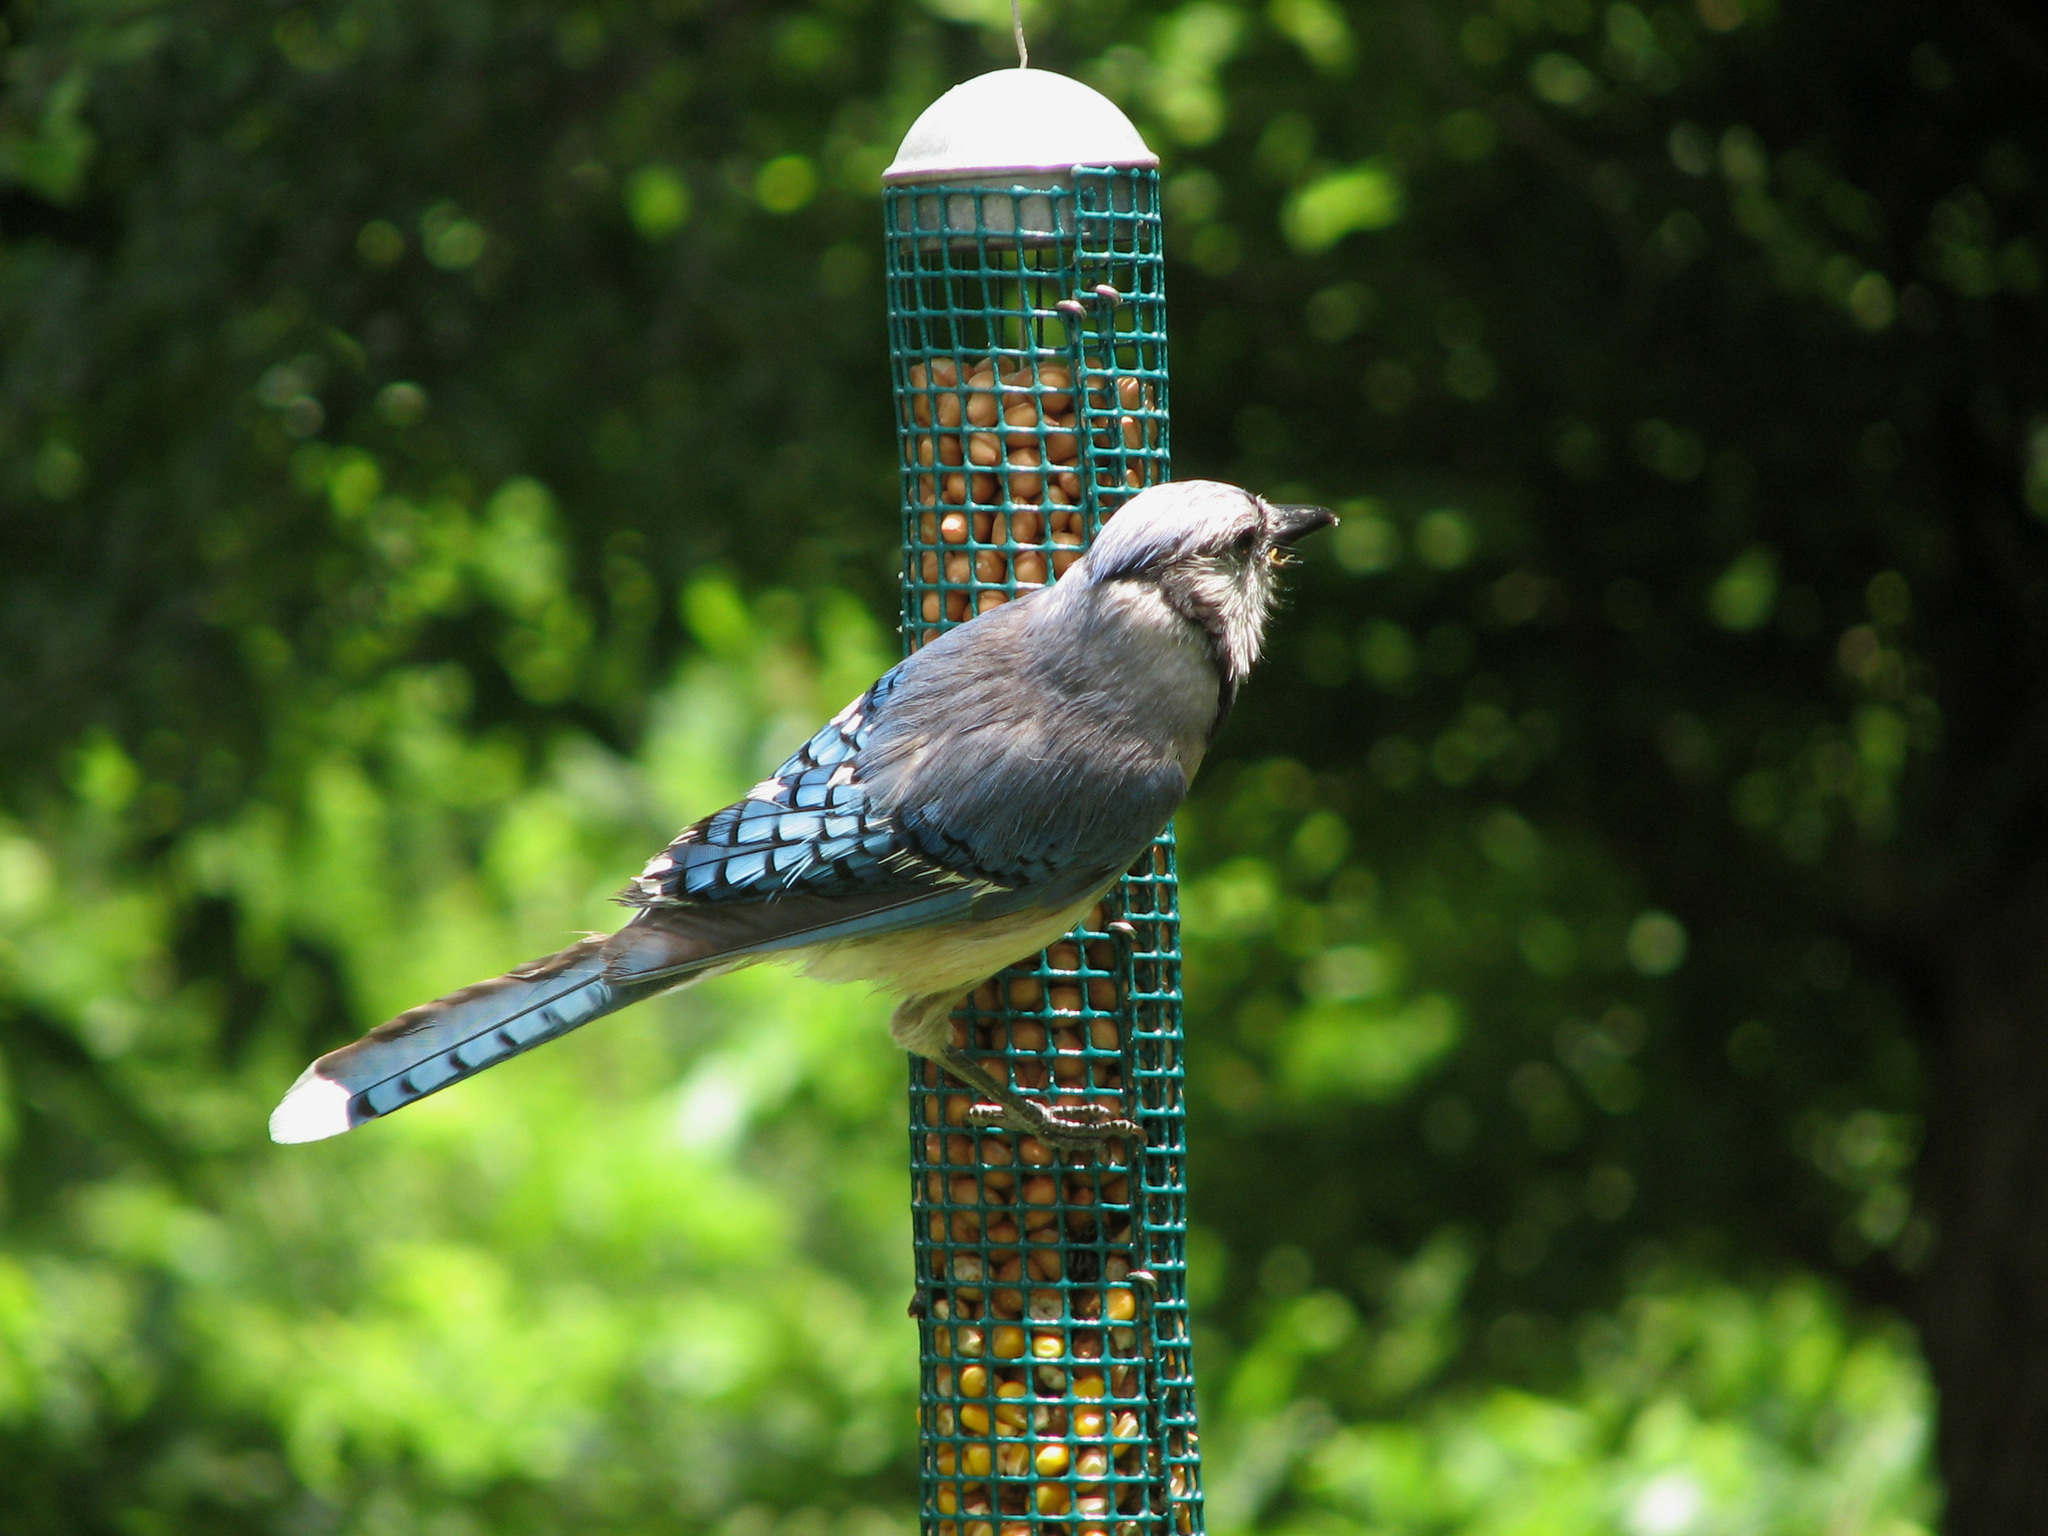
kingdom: Animalia
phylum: Chordata
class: Aves
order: Passeriformes
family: Corvidae
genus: Cyanocitta
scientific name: Cyanocitta cristata
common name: Blue jay
